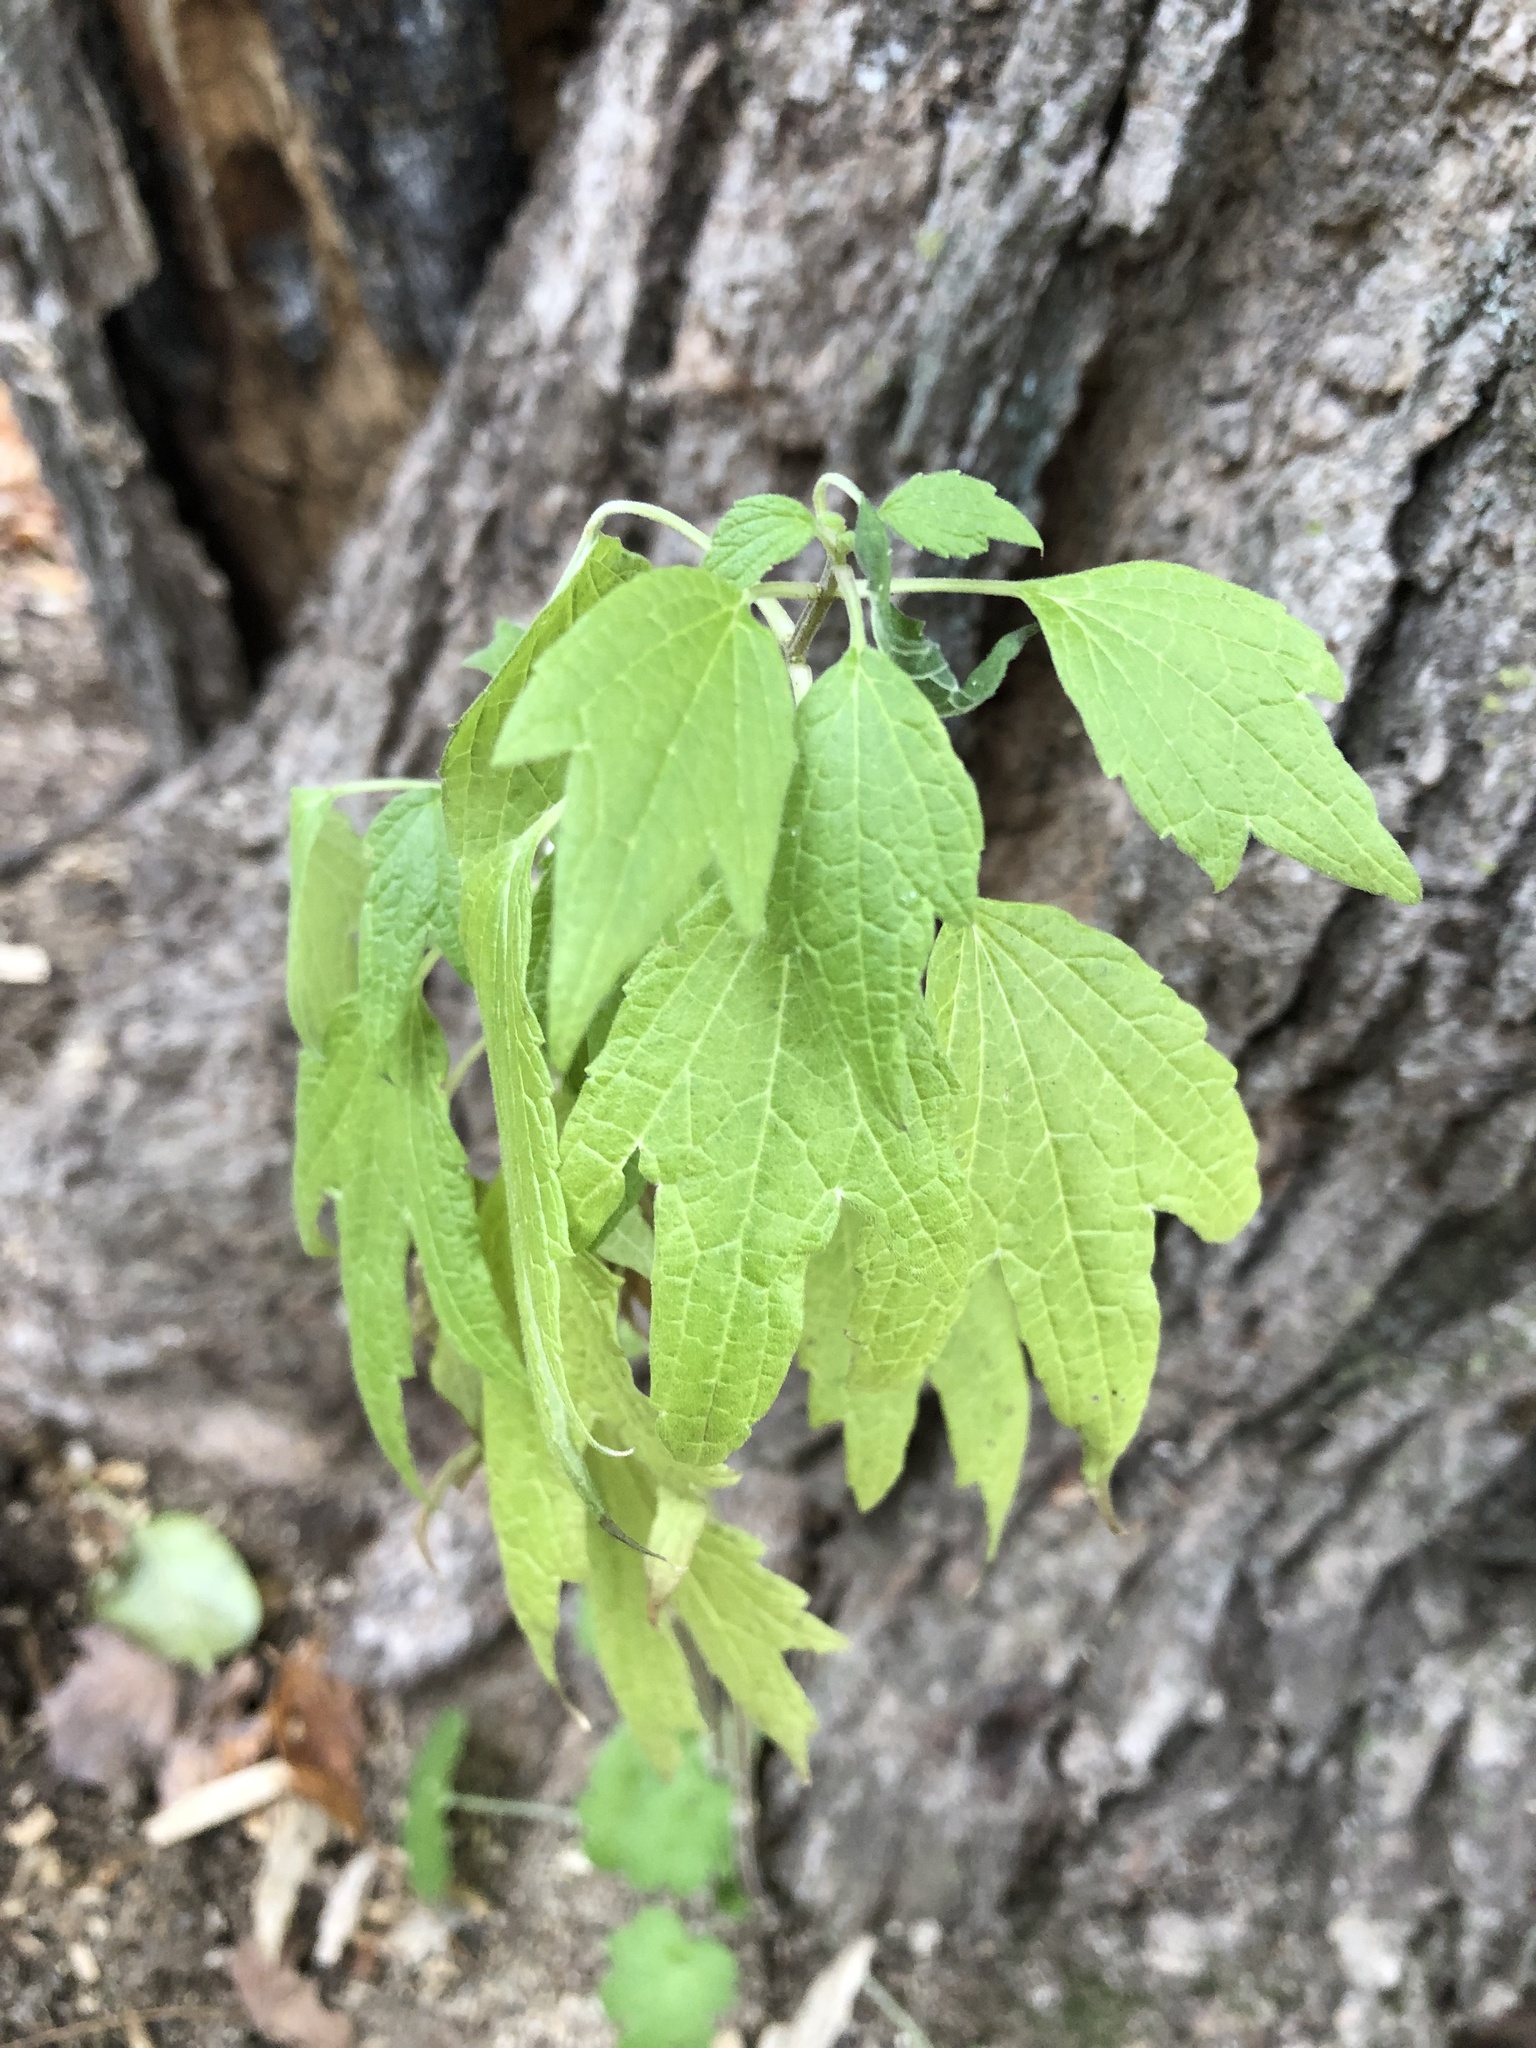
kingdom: Plantae
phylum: Tracheophyta
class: Magnoliopsida
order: Lamiales
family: Lamiaceae
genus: Leonurus
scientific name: Leonurus cardiaca
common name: Motherwort
